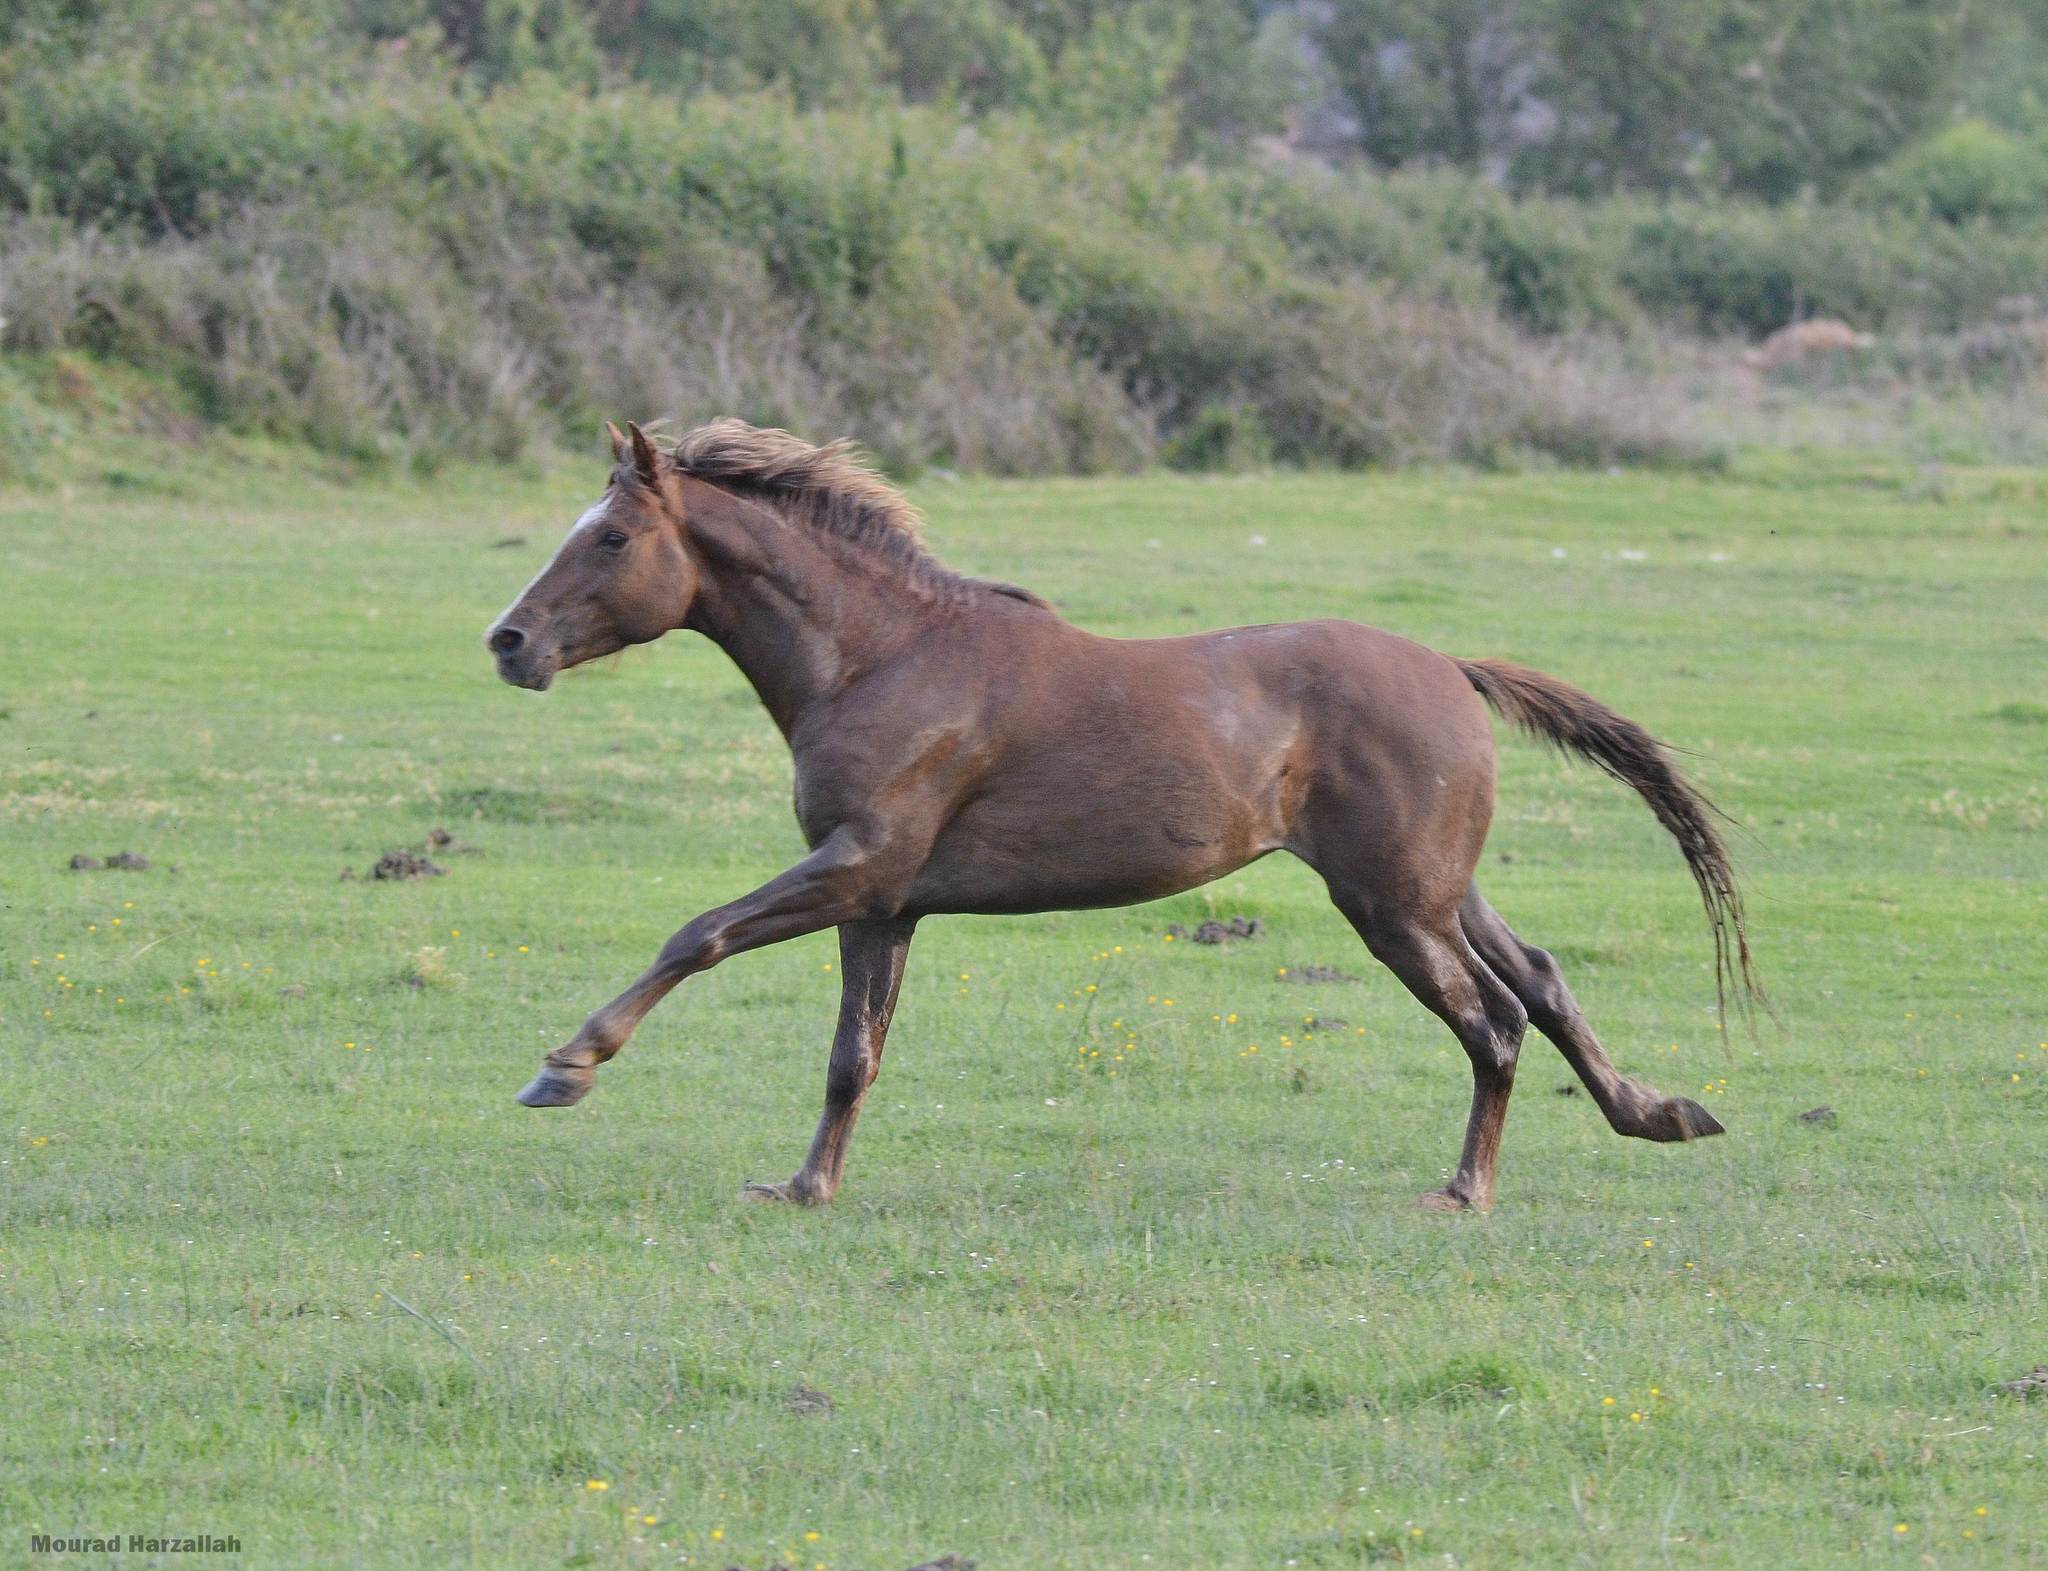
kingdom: Animalia
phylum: Chordata
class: Mammalia
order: Perissodactyla
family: Equidae
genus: Equus
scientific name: Equus caballus
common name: Horse
